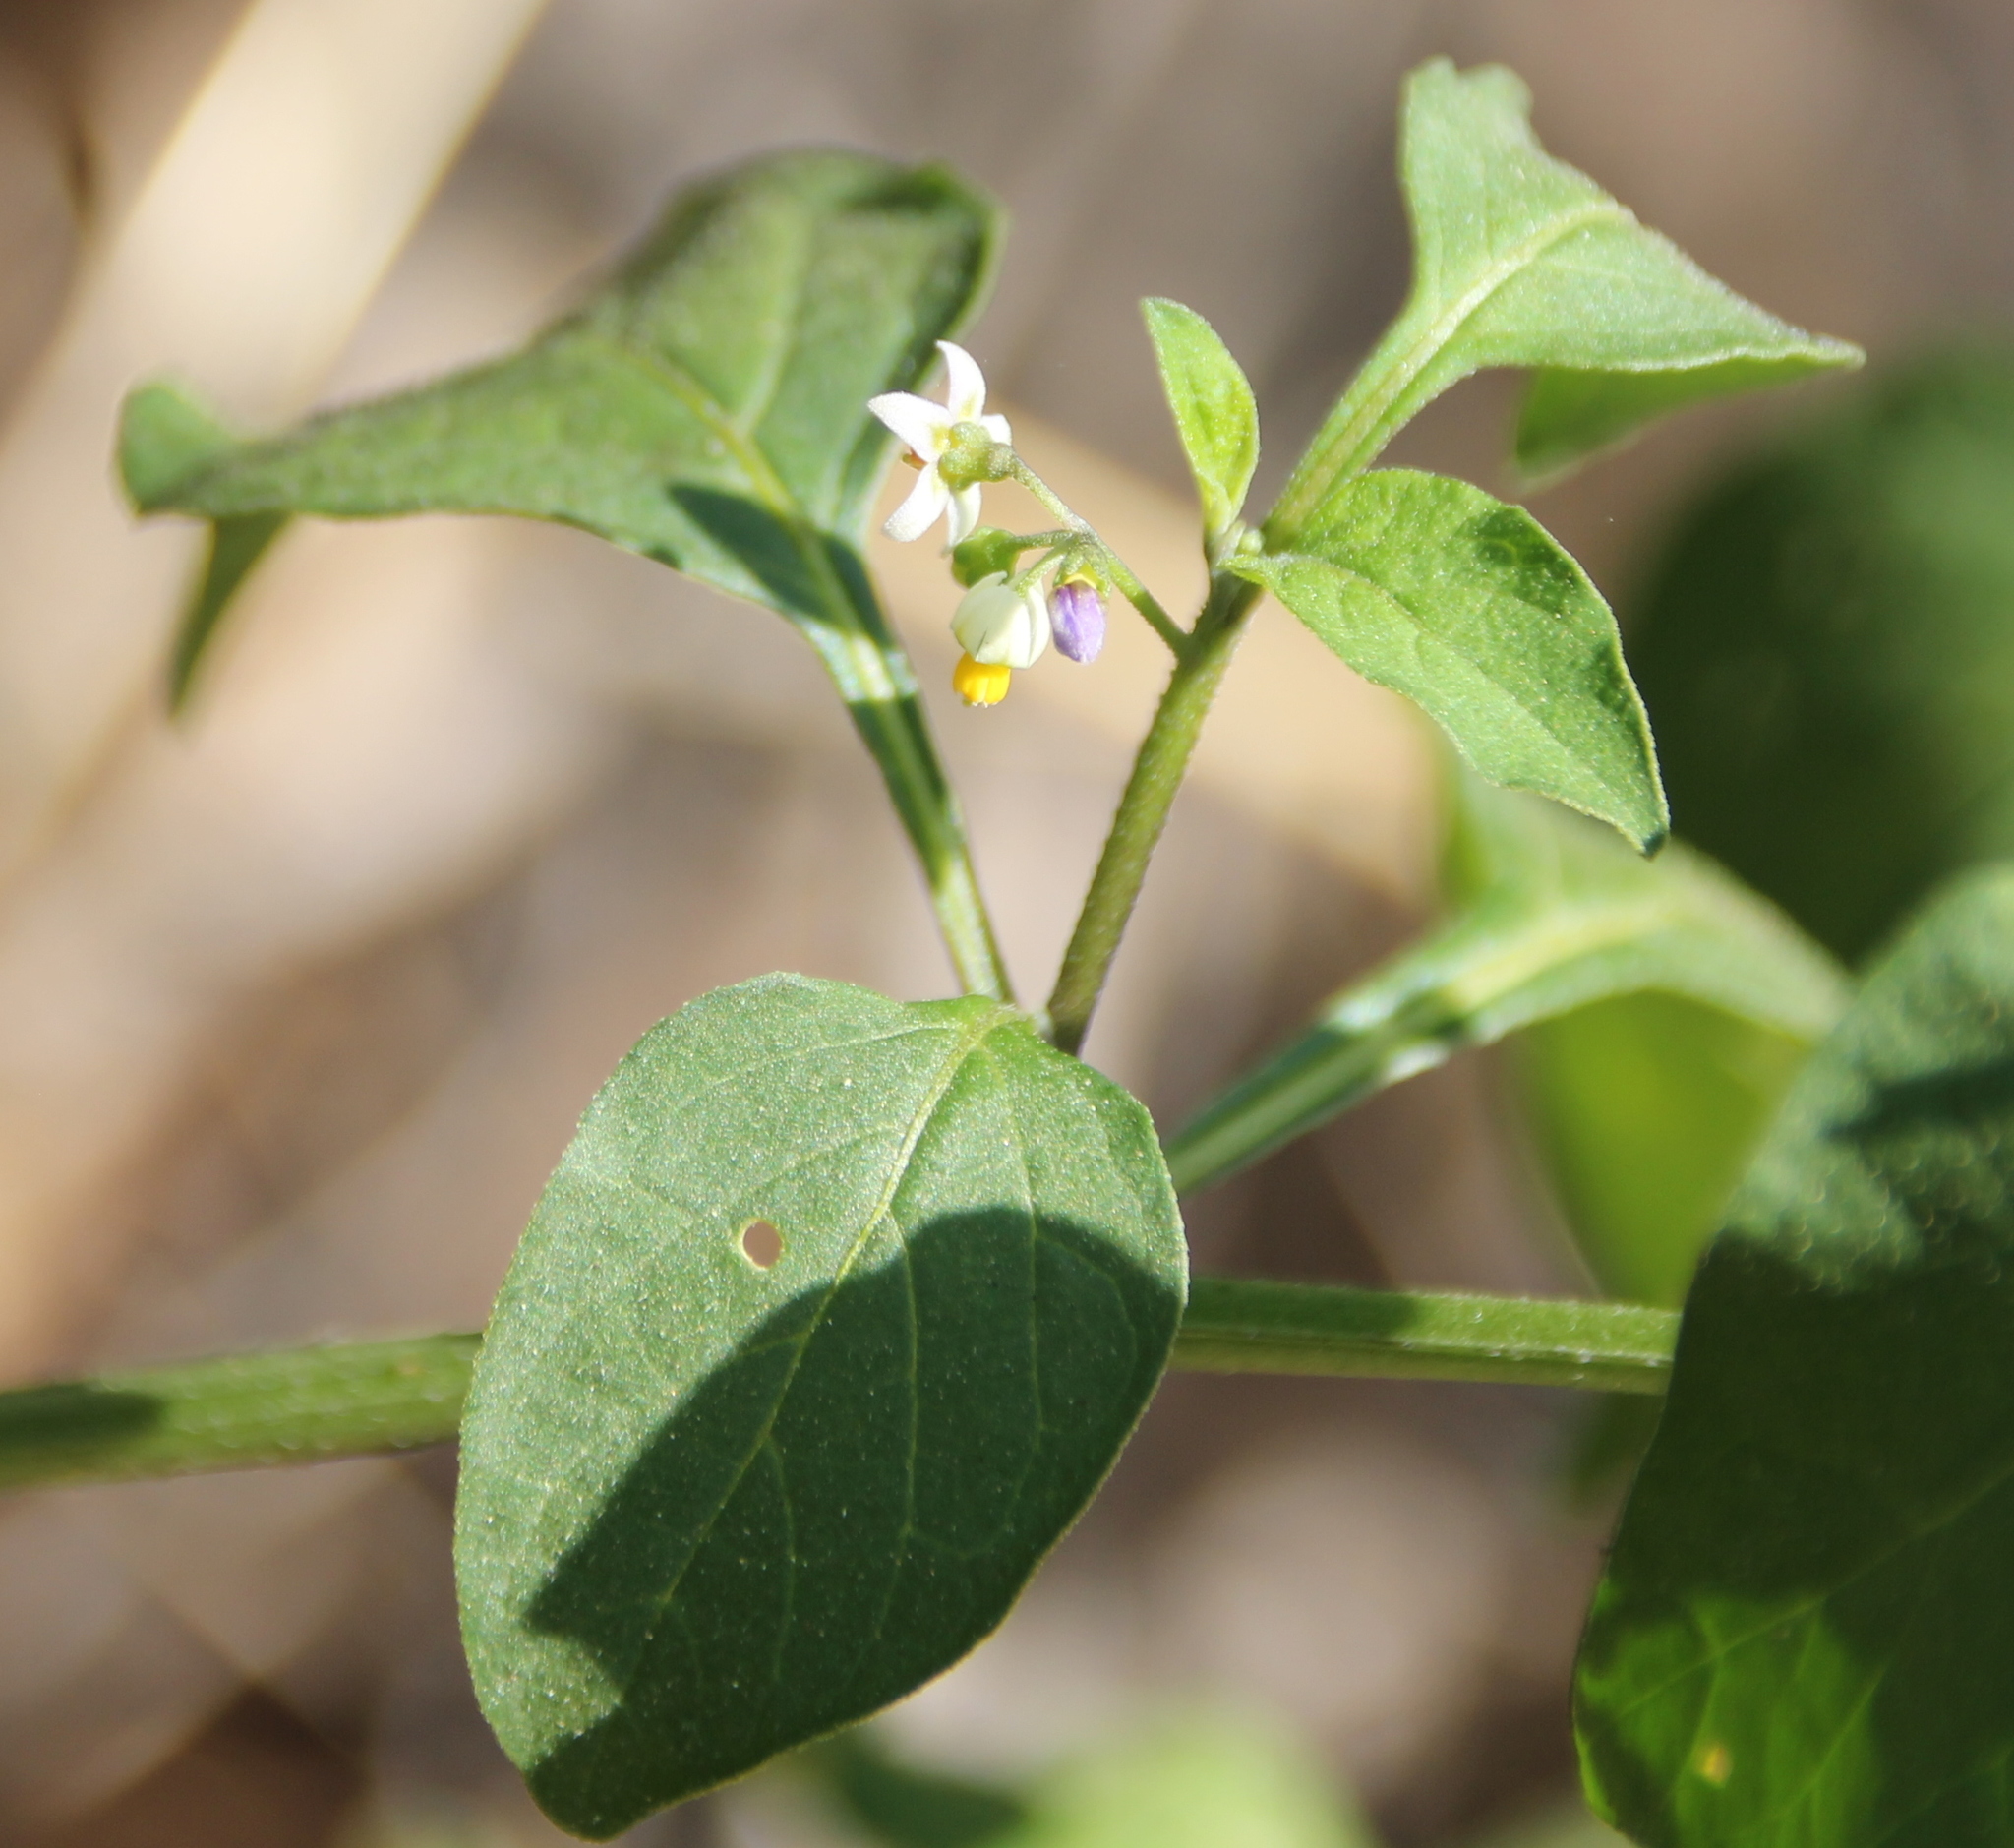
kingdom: Plantae
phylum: Tracheophyta
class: Magnoliopsida
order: Solanales
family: Solanaceae
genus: Solanum
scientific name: Solanum americanum
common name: American black nightshade
